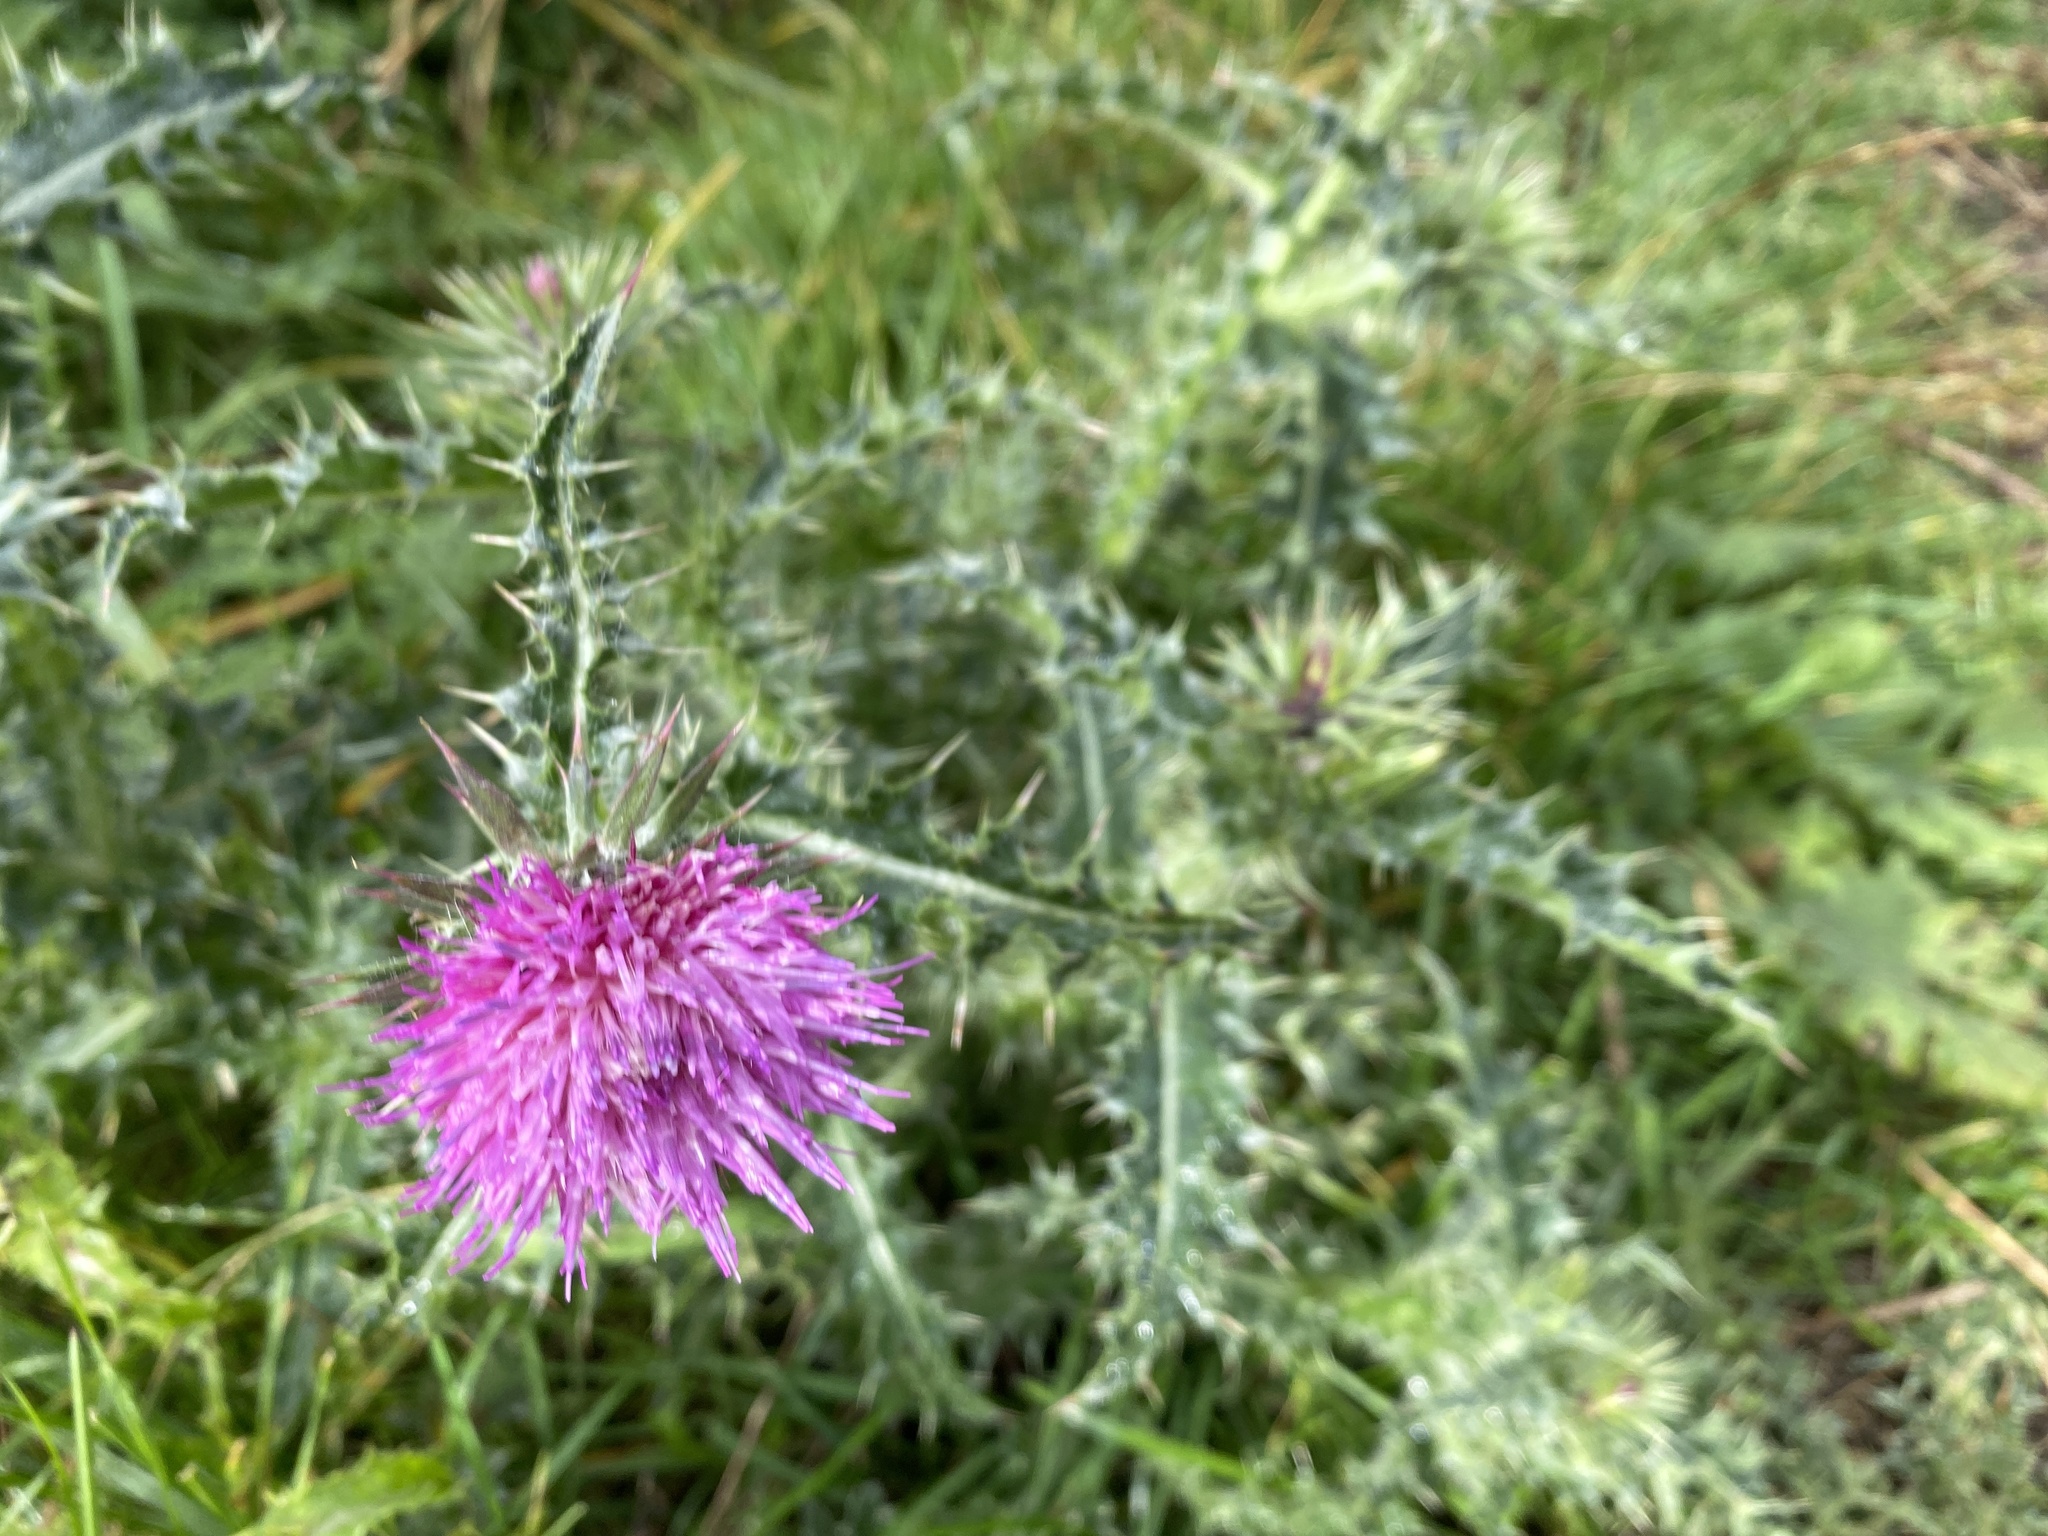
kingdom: Plantae
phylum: Tracheophyta
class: Magnoliopsida
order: Asterales
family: Asteraceae
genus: Carduus
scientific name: Carduus nutans
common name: Musk thistle
